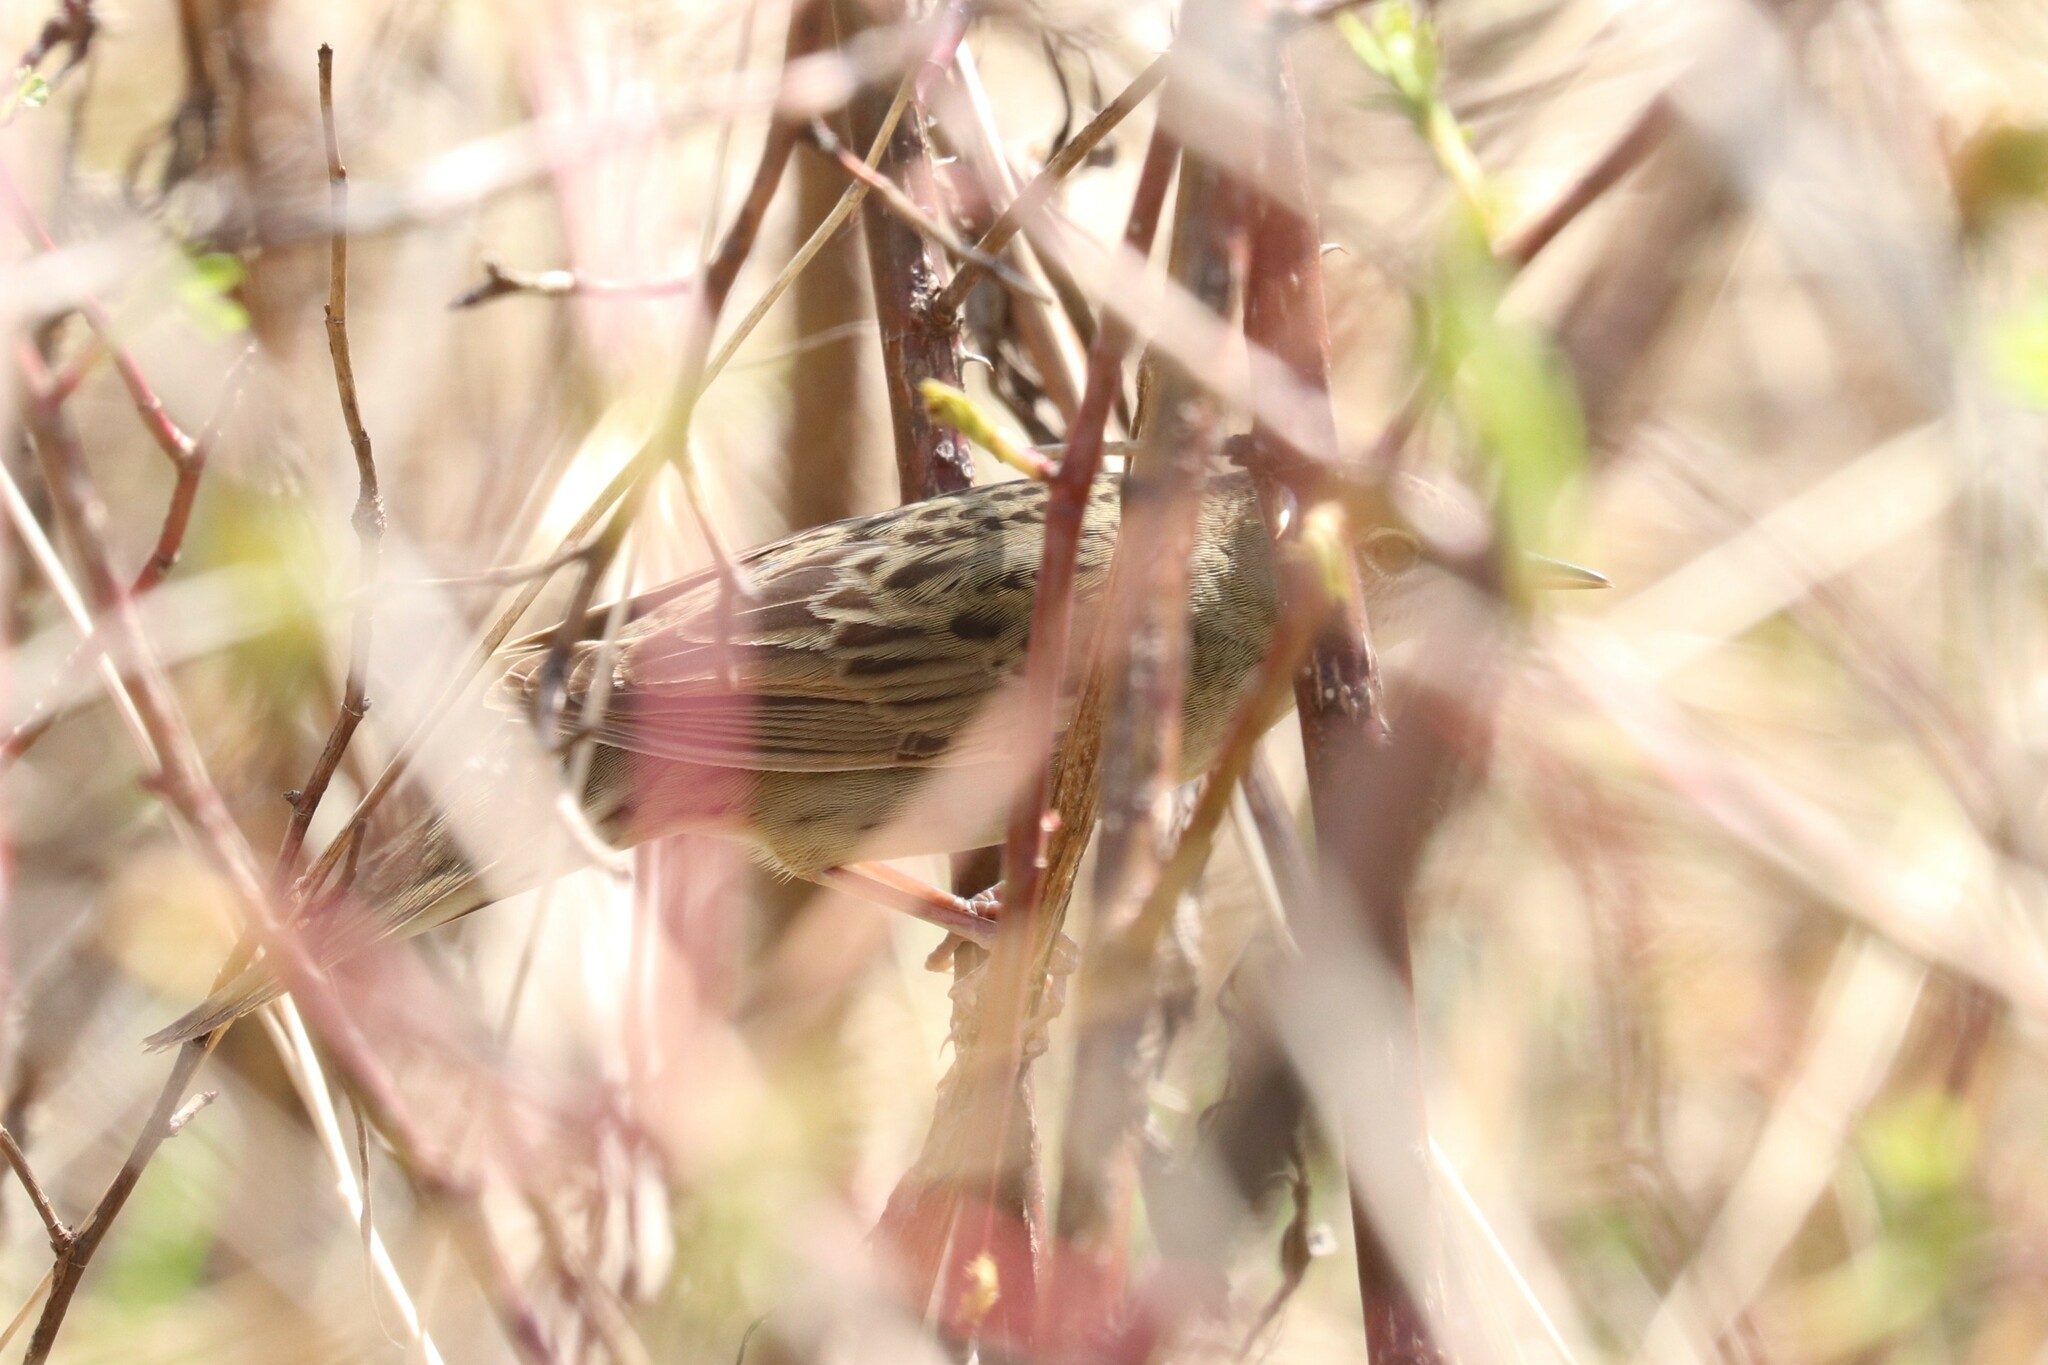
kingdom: Animalia
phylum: Chordata
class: Aves
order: Passeriformes
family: Locustellidae
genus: Locustella
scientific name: Locustella naevia
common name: Common grasshopper warbler
